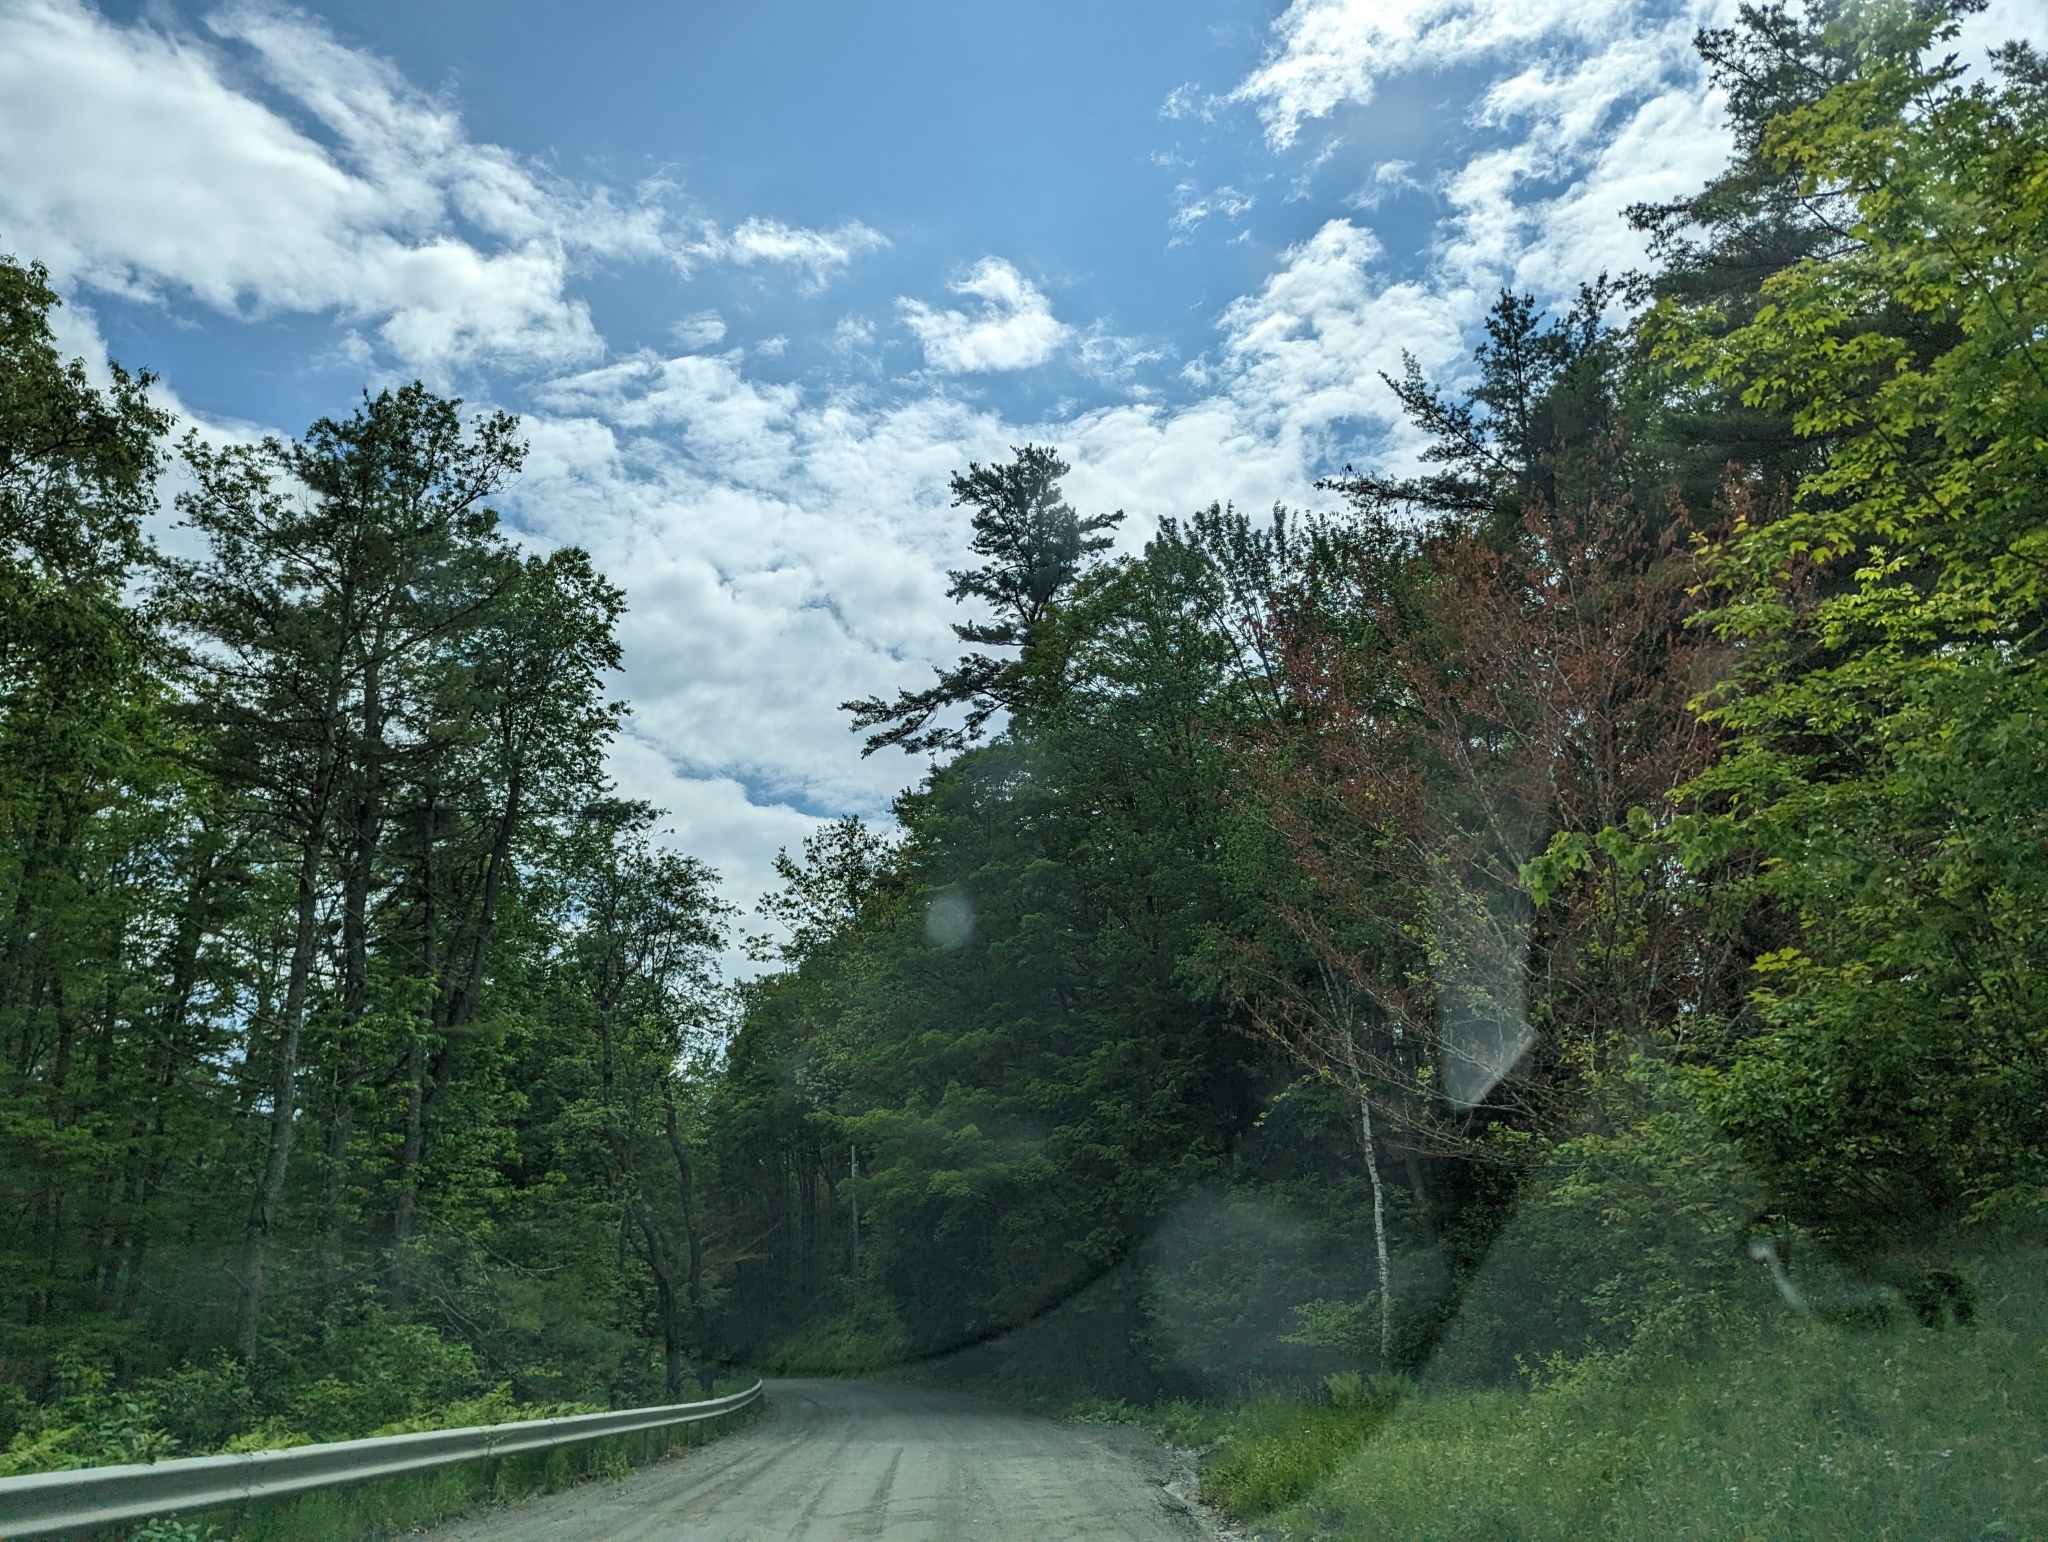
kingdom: Plantae
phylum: Tracheophyta
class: Pinopsida
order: Pinales
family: Pinaceae
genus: Pinus
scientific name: Pinus strobus
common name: Weymouth pine
